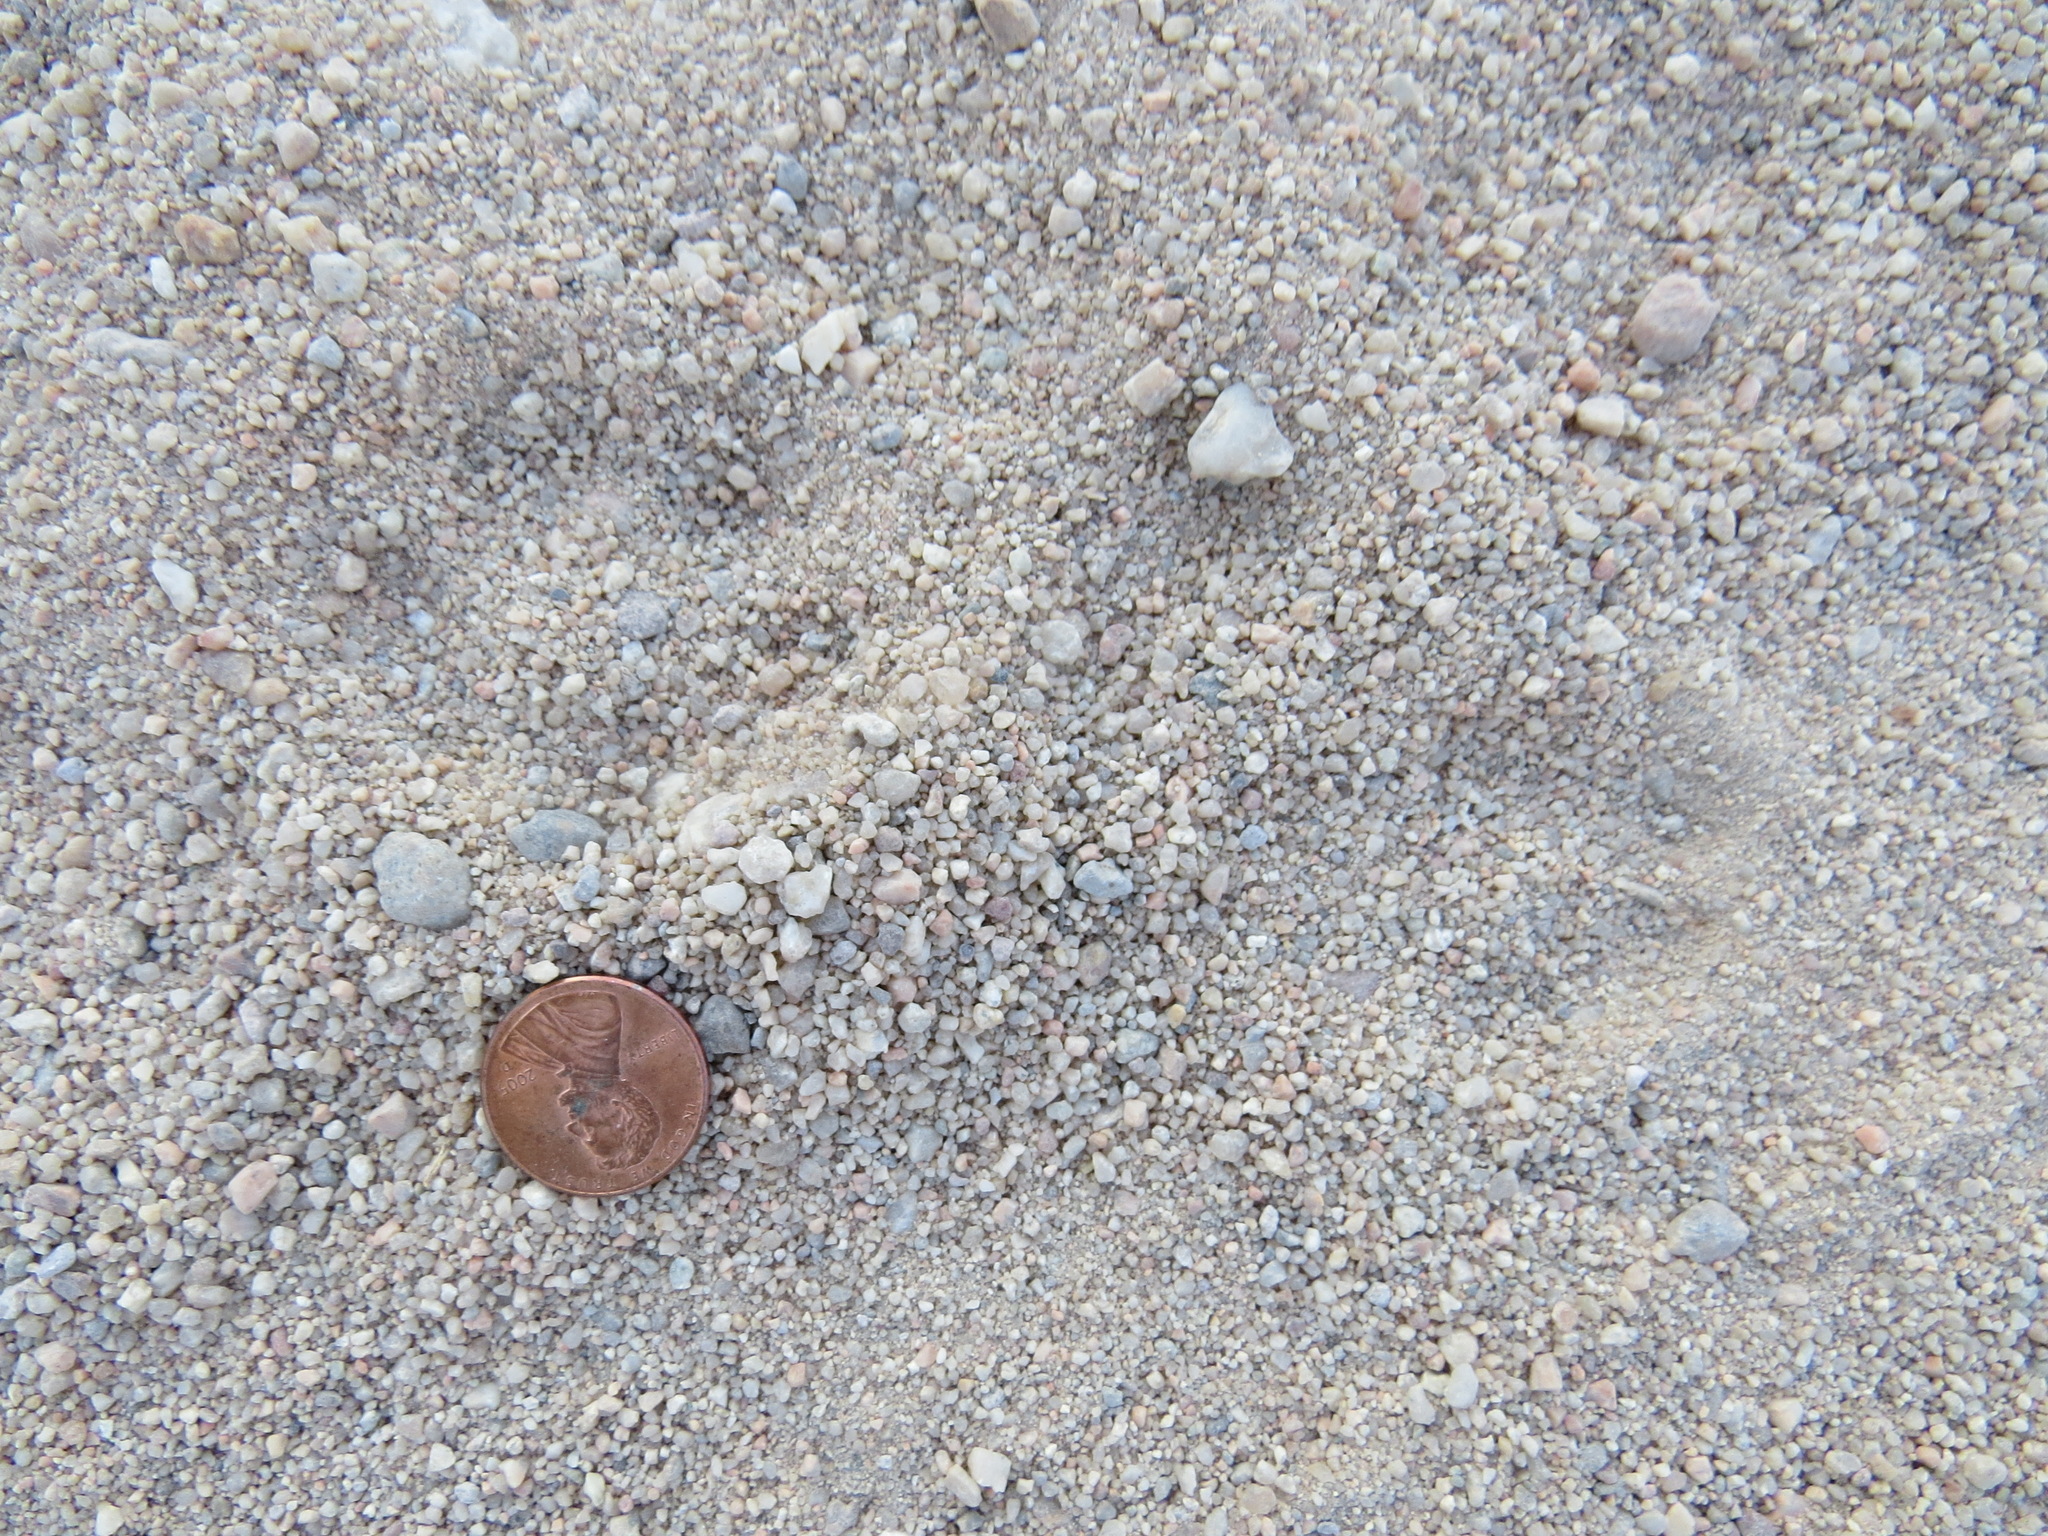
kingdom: Animalia
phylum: Chordata
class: Mammalia
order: Carnivora
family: Canidae
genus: Vulpes
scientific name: Vulpes macrotis
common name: Kit fox
